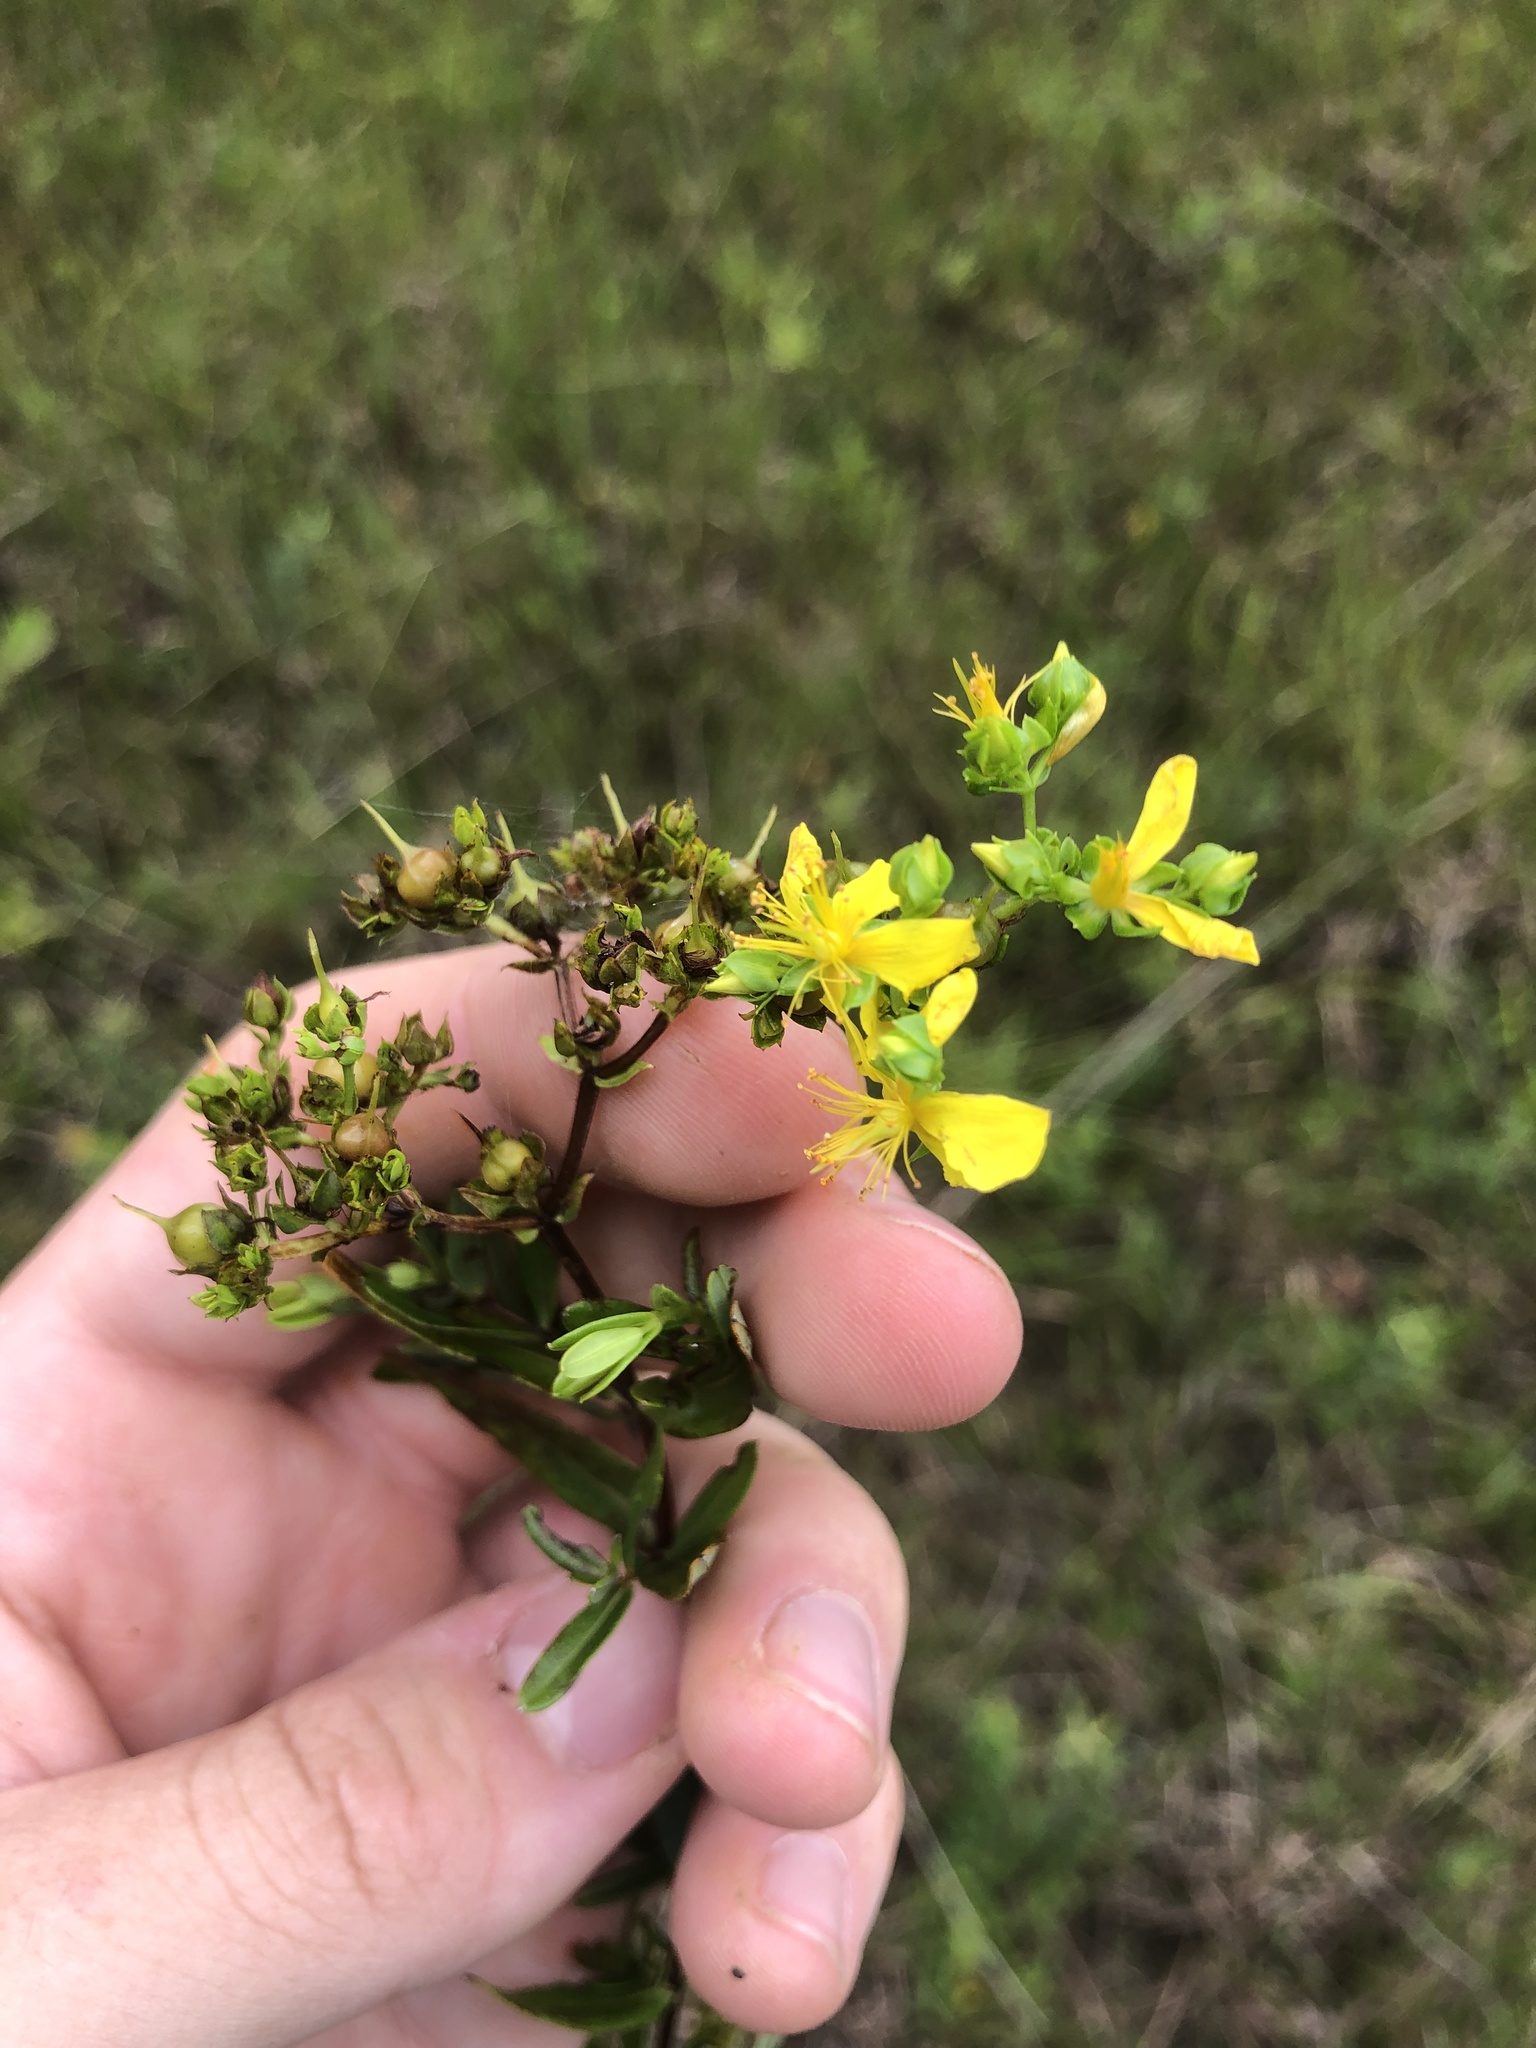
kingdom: Plantae
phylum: Tracheophyta
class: Magnoliopsida
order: Malpighiales
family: Hypericaceae
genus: Hypericum
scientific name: Hypericum sphaerocarpum
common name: Round-fruited st. john's-wort
